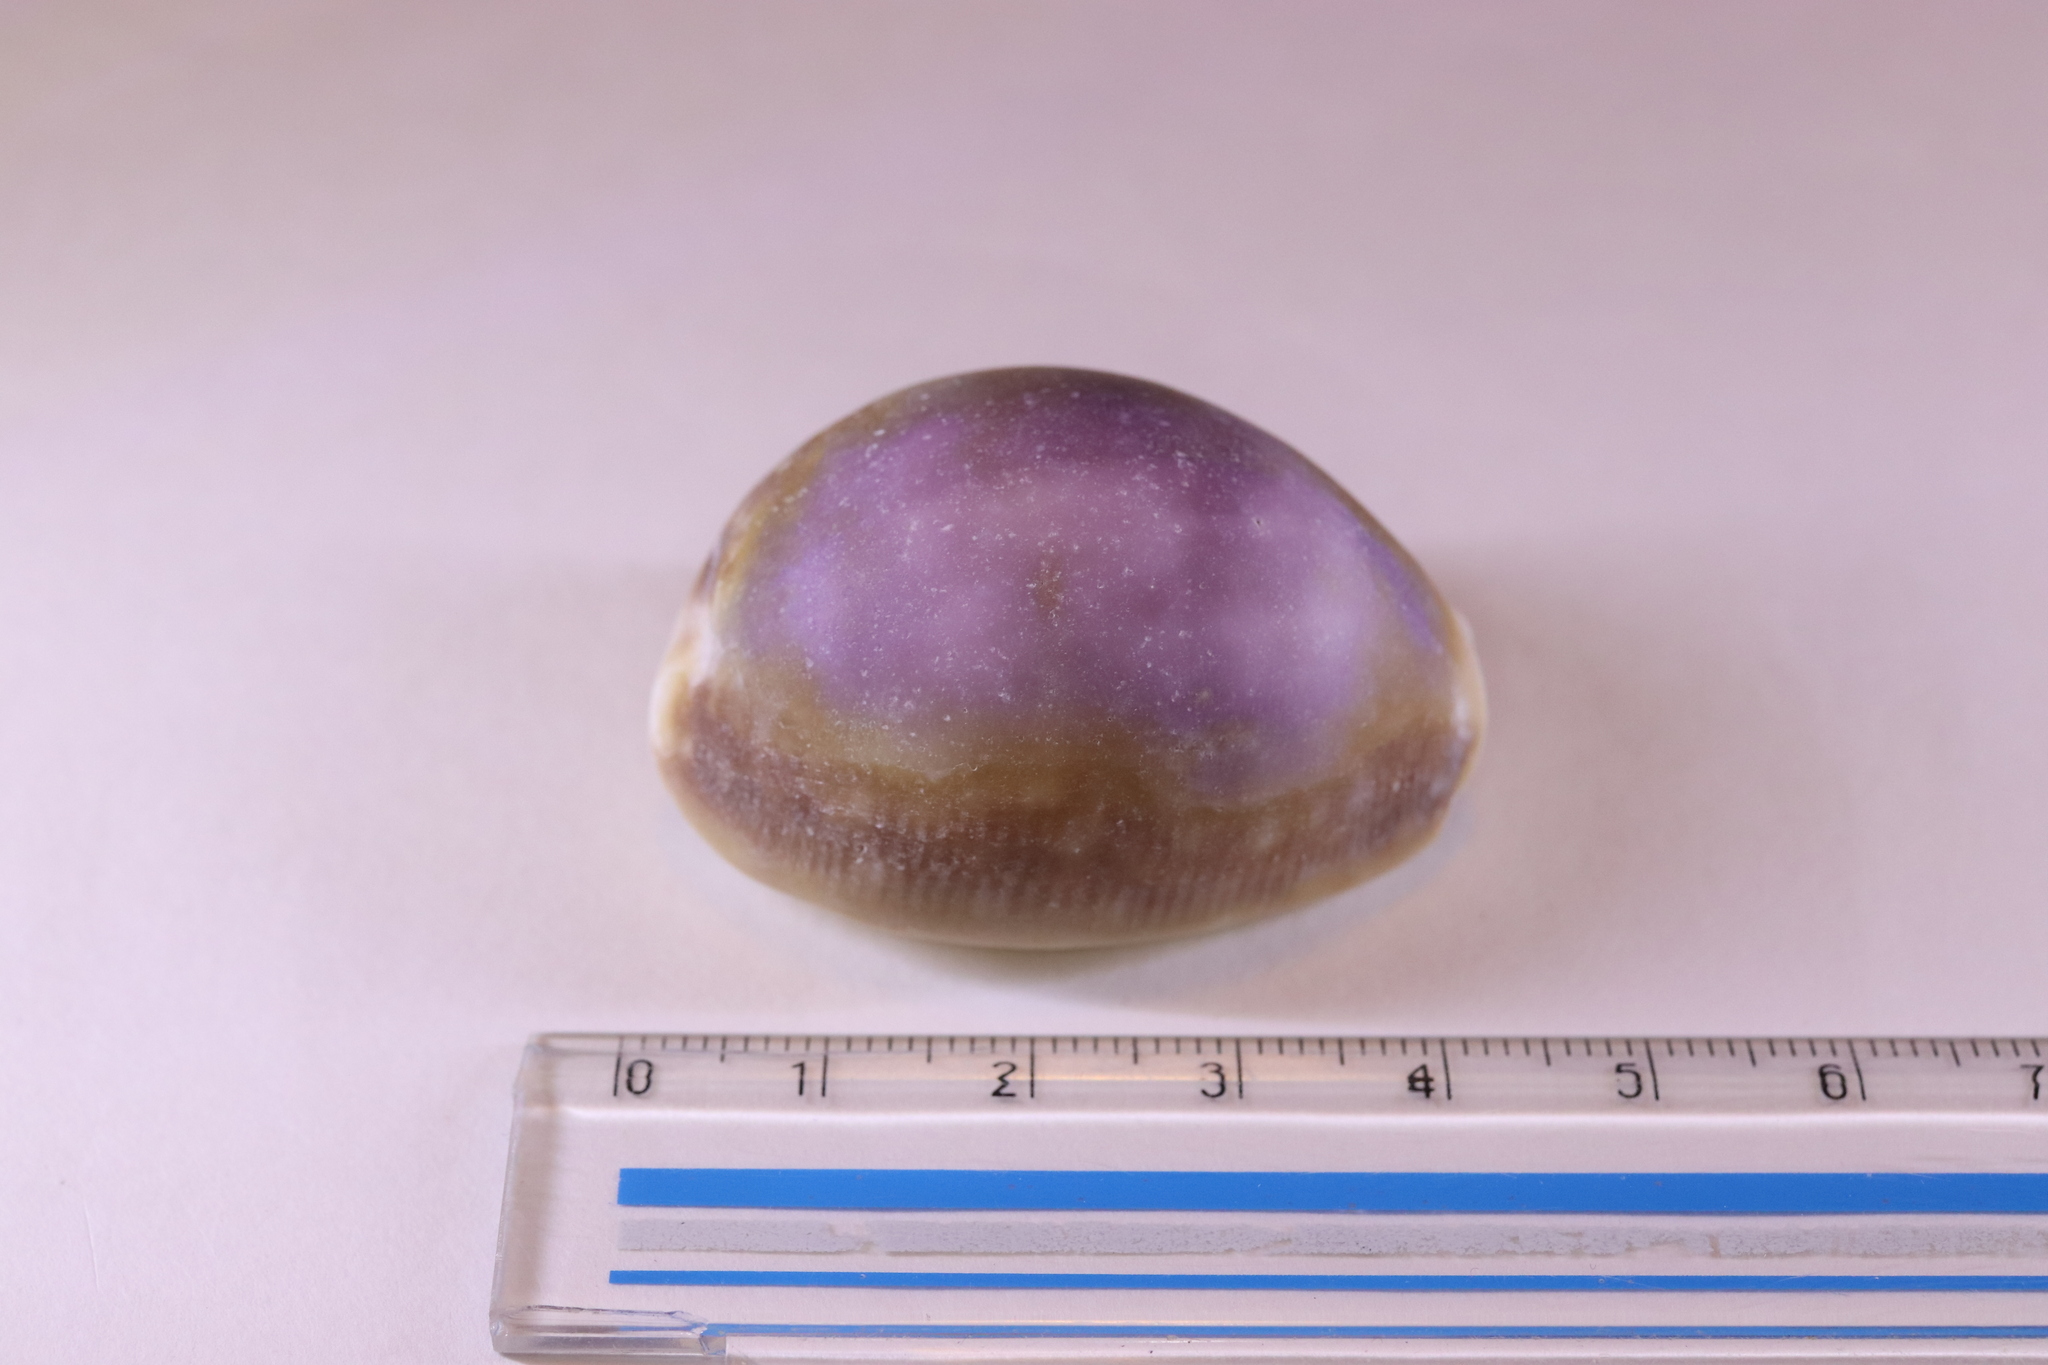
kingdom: Animalia
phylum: Mollusca
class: Gastropoda
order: Littorinimorpha
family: Cypraeidae
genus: Lyncina
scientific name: Lyncina vitellus
